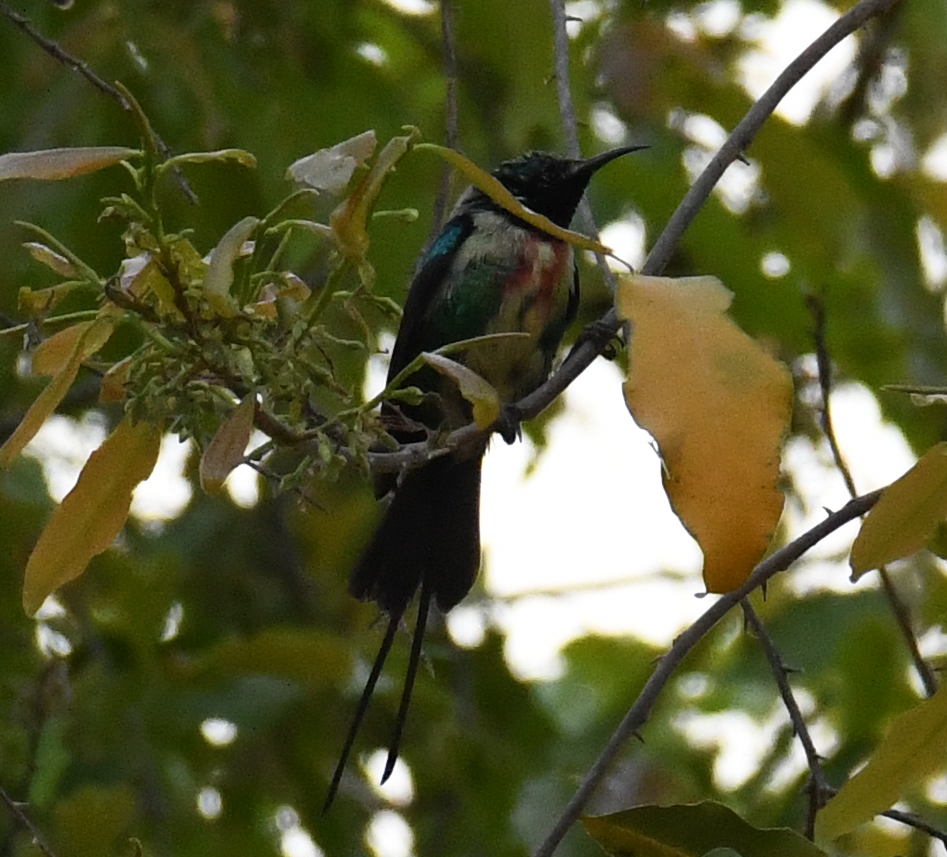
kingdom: Animalia
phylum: Chordata
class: Aves
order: Passeriformes
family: Nectariniidae
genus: Cinnyris
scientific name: Cinnyris pulchellus
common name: Beautiful sunbird
